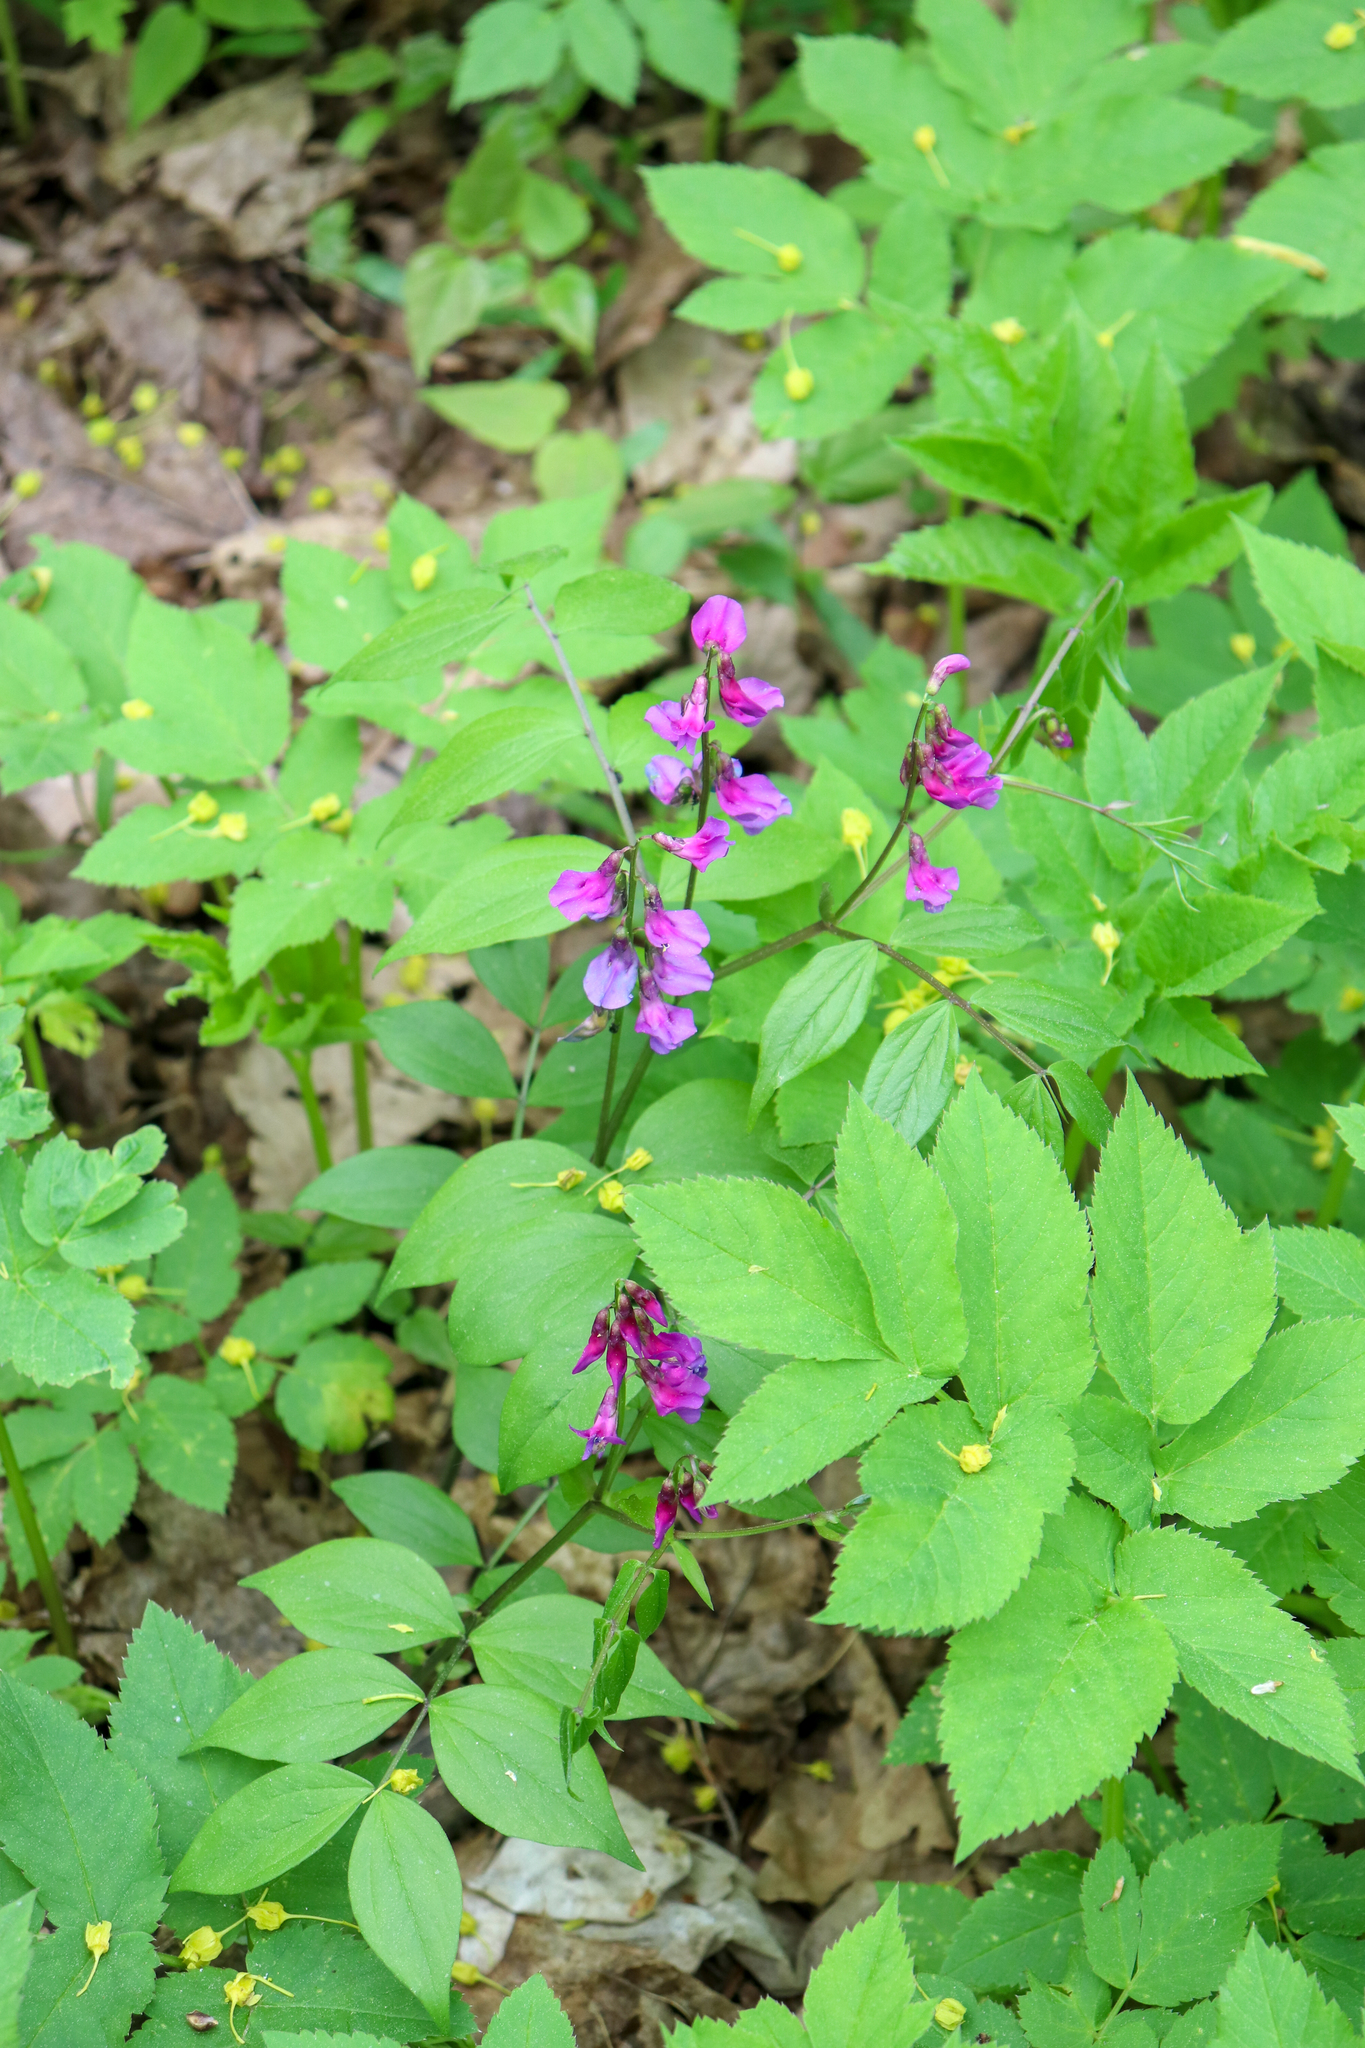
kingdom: Plantae
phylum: Tracheophyta
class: Magnoliopsida
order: Fabales
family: Fabaceae
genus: Lathyrus
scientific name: Lathyrus vernus
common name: Spring pea
